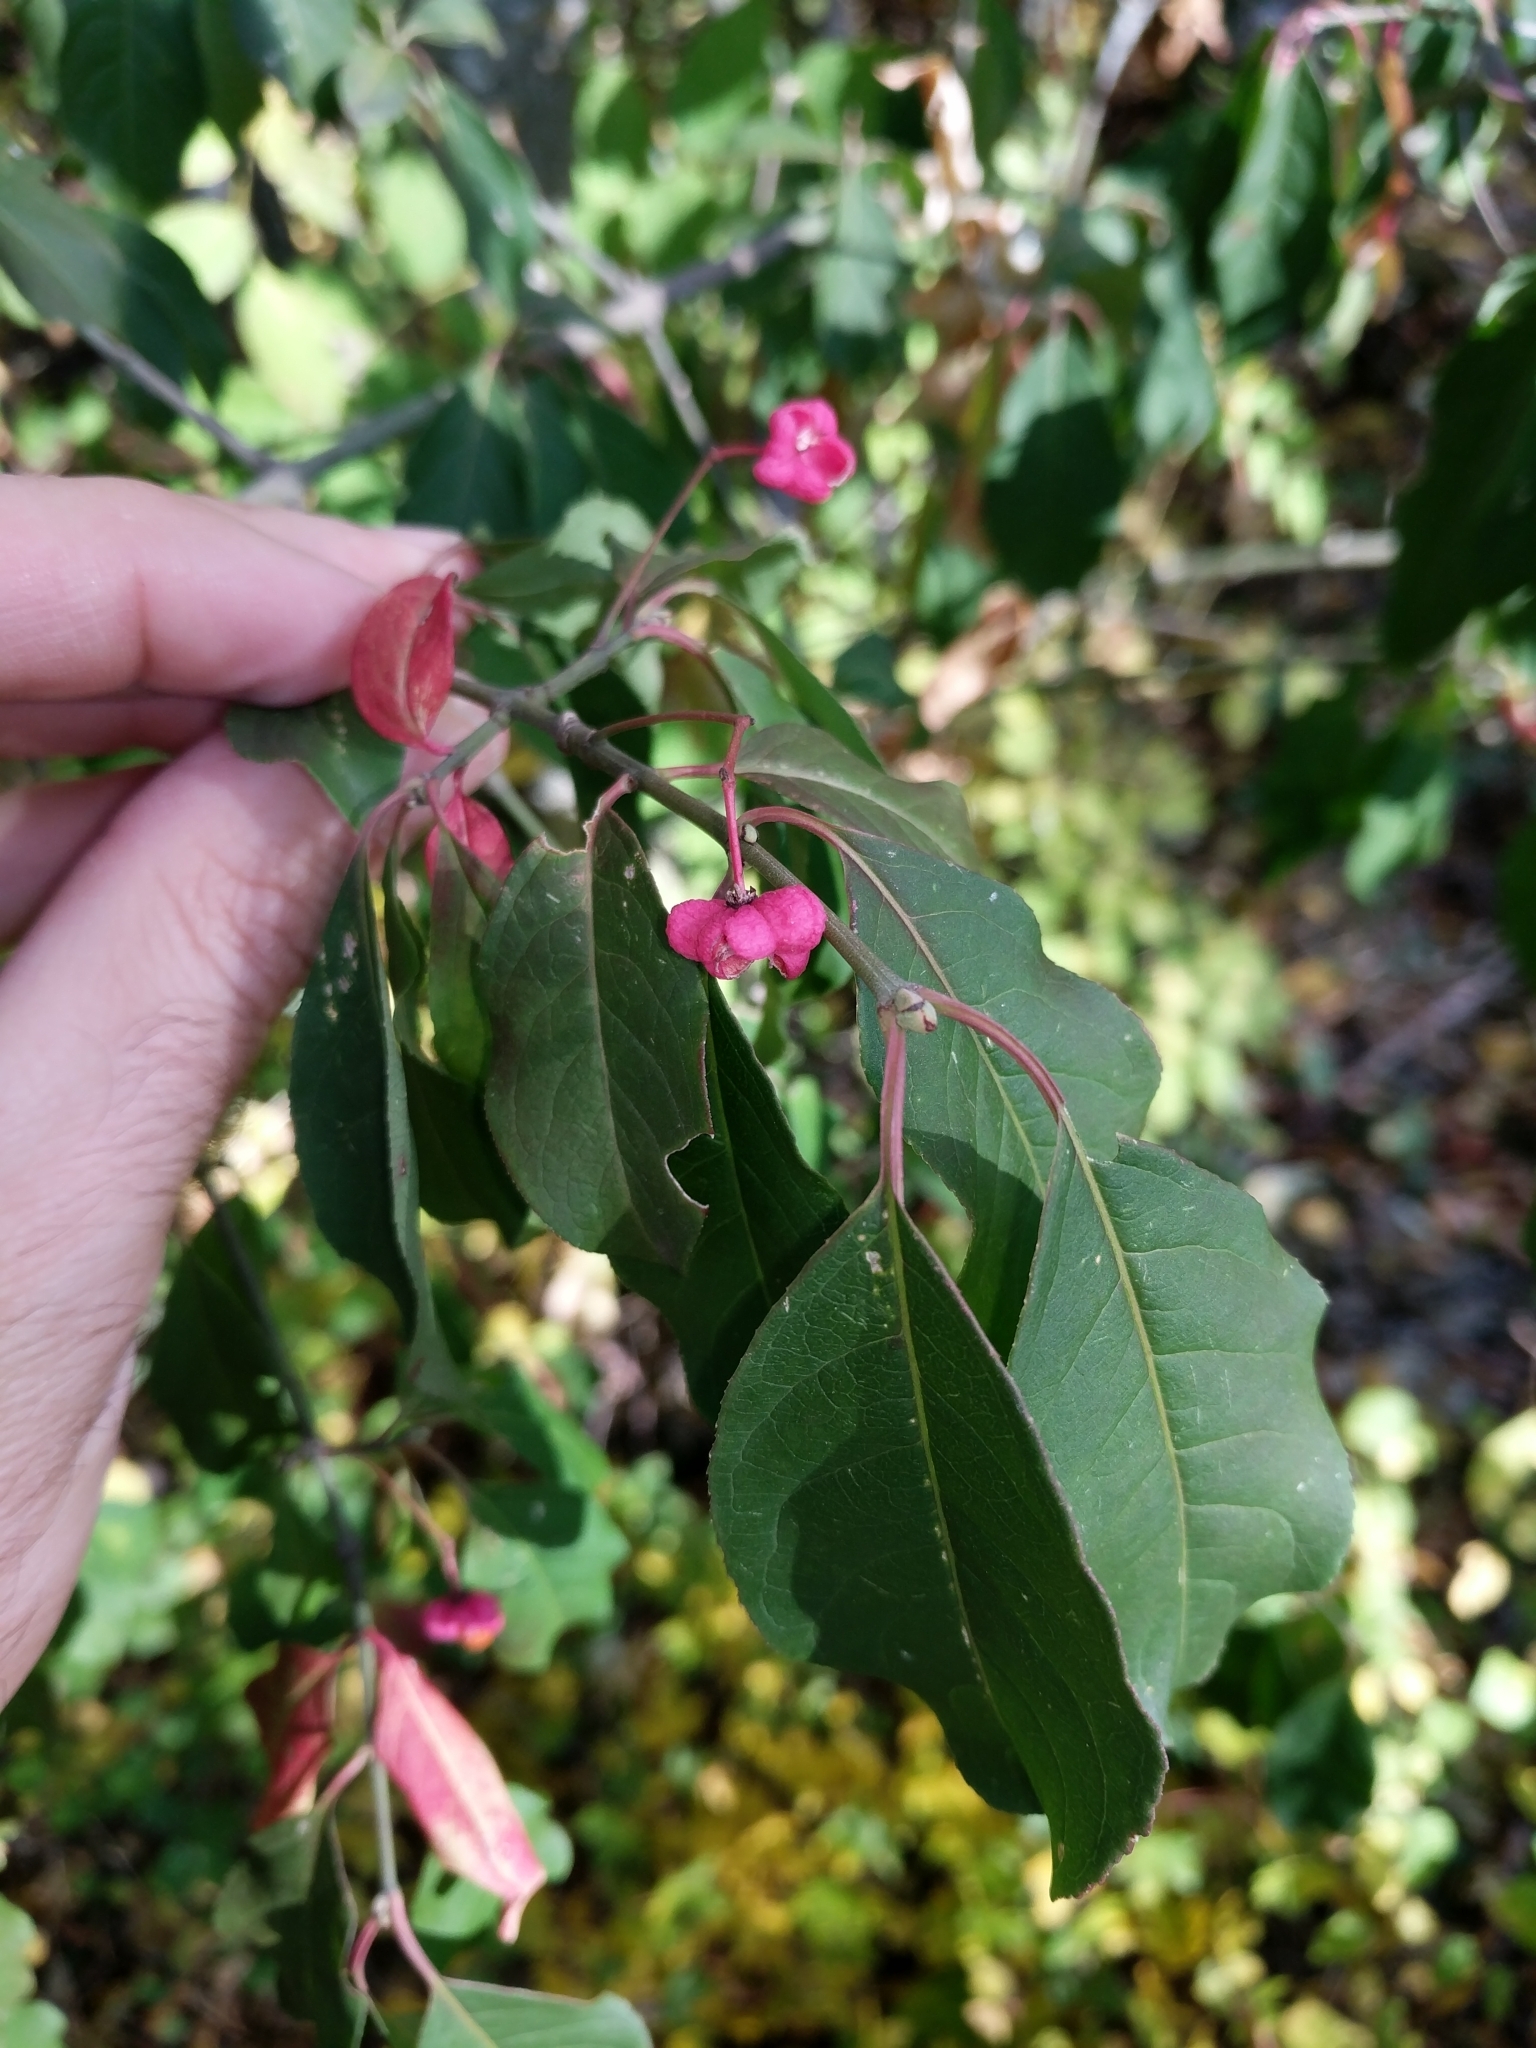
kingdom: Plantae
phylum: Tracheophyta
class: Magnoliopsida
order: Celastrales
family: Celastraceae
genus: Euonymus
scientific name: Euonymus europaeus
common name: Spindle
